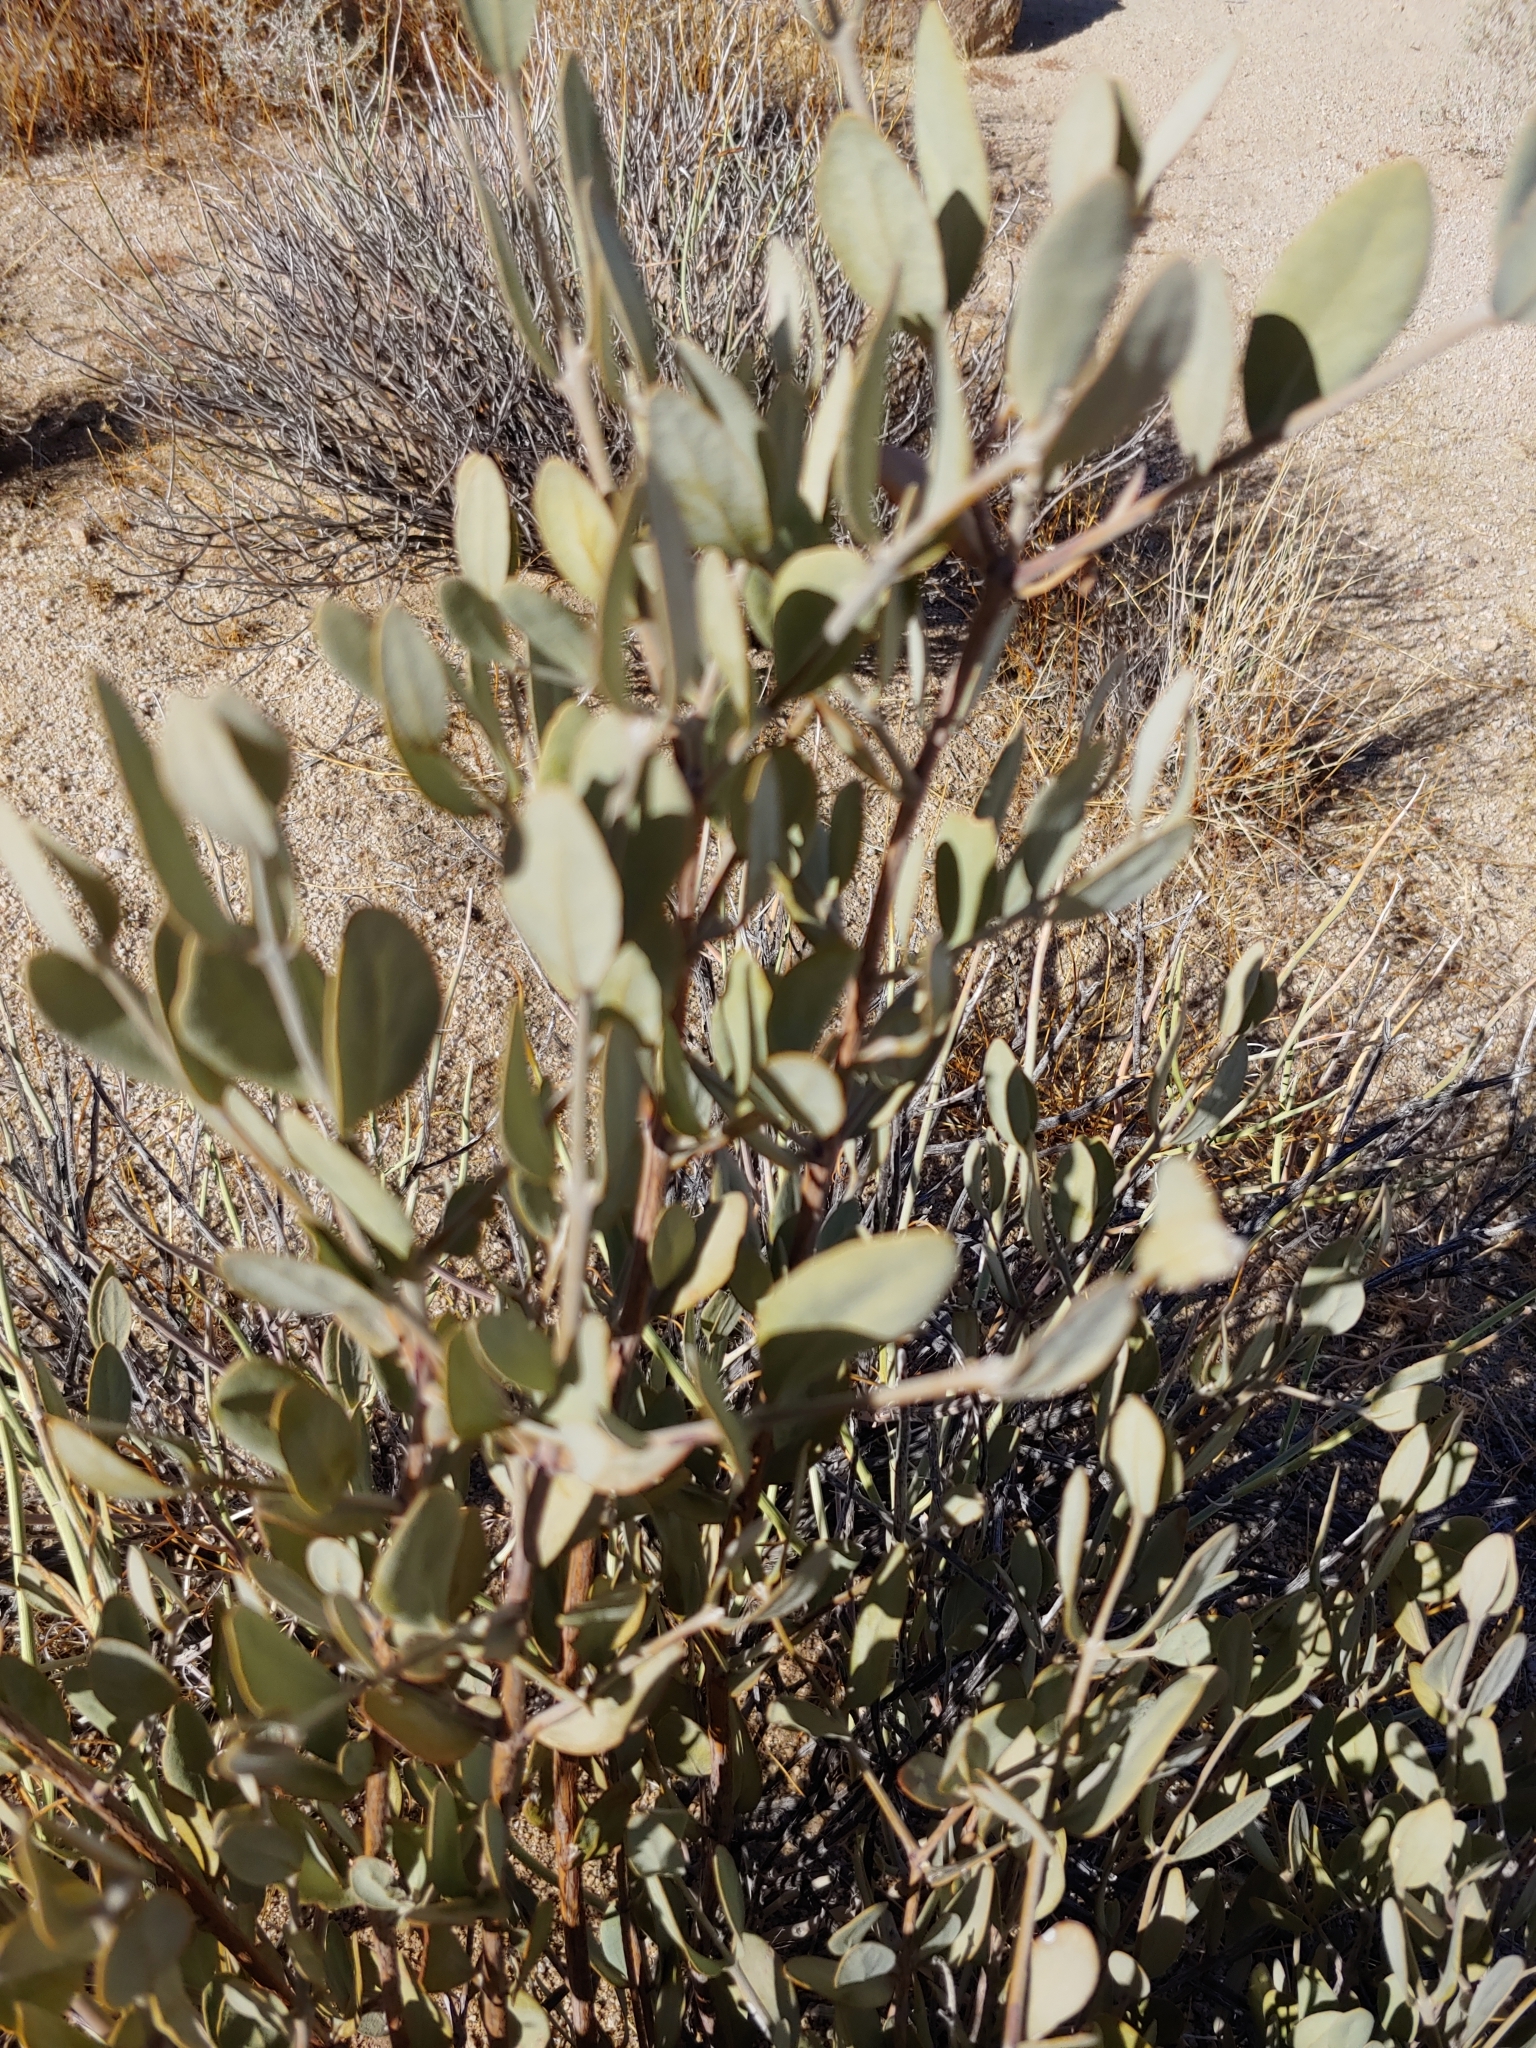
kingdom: Plantae
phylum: Tracheophyta
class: Magnoliopsida
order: Caryophyllales
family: Simmondsiaceae
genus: Simmondsia
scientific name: Simmondsia chinensis
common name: Jojoba
